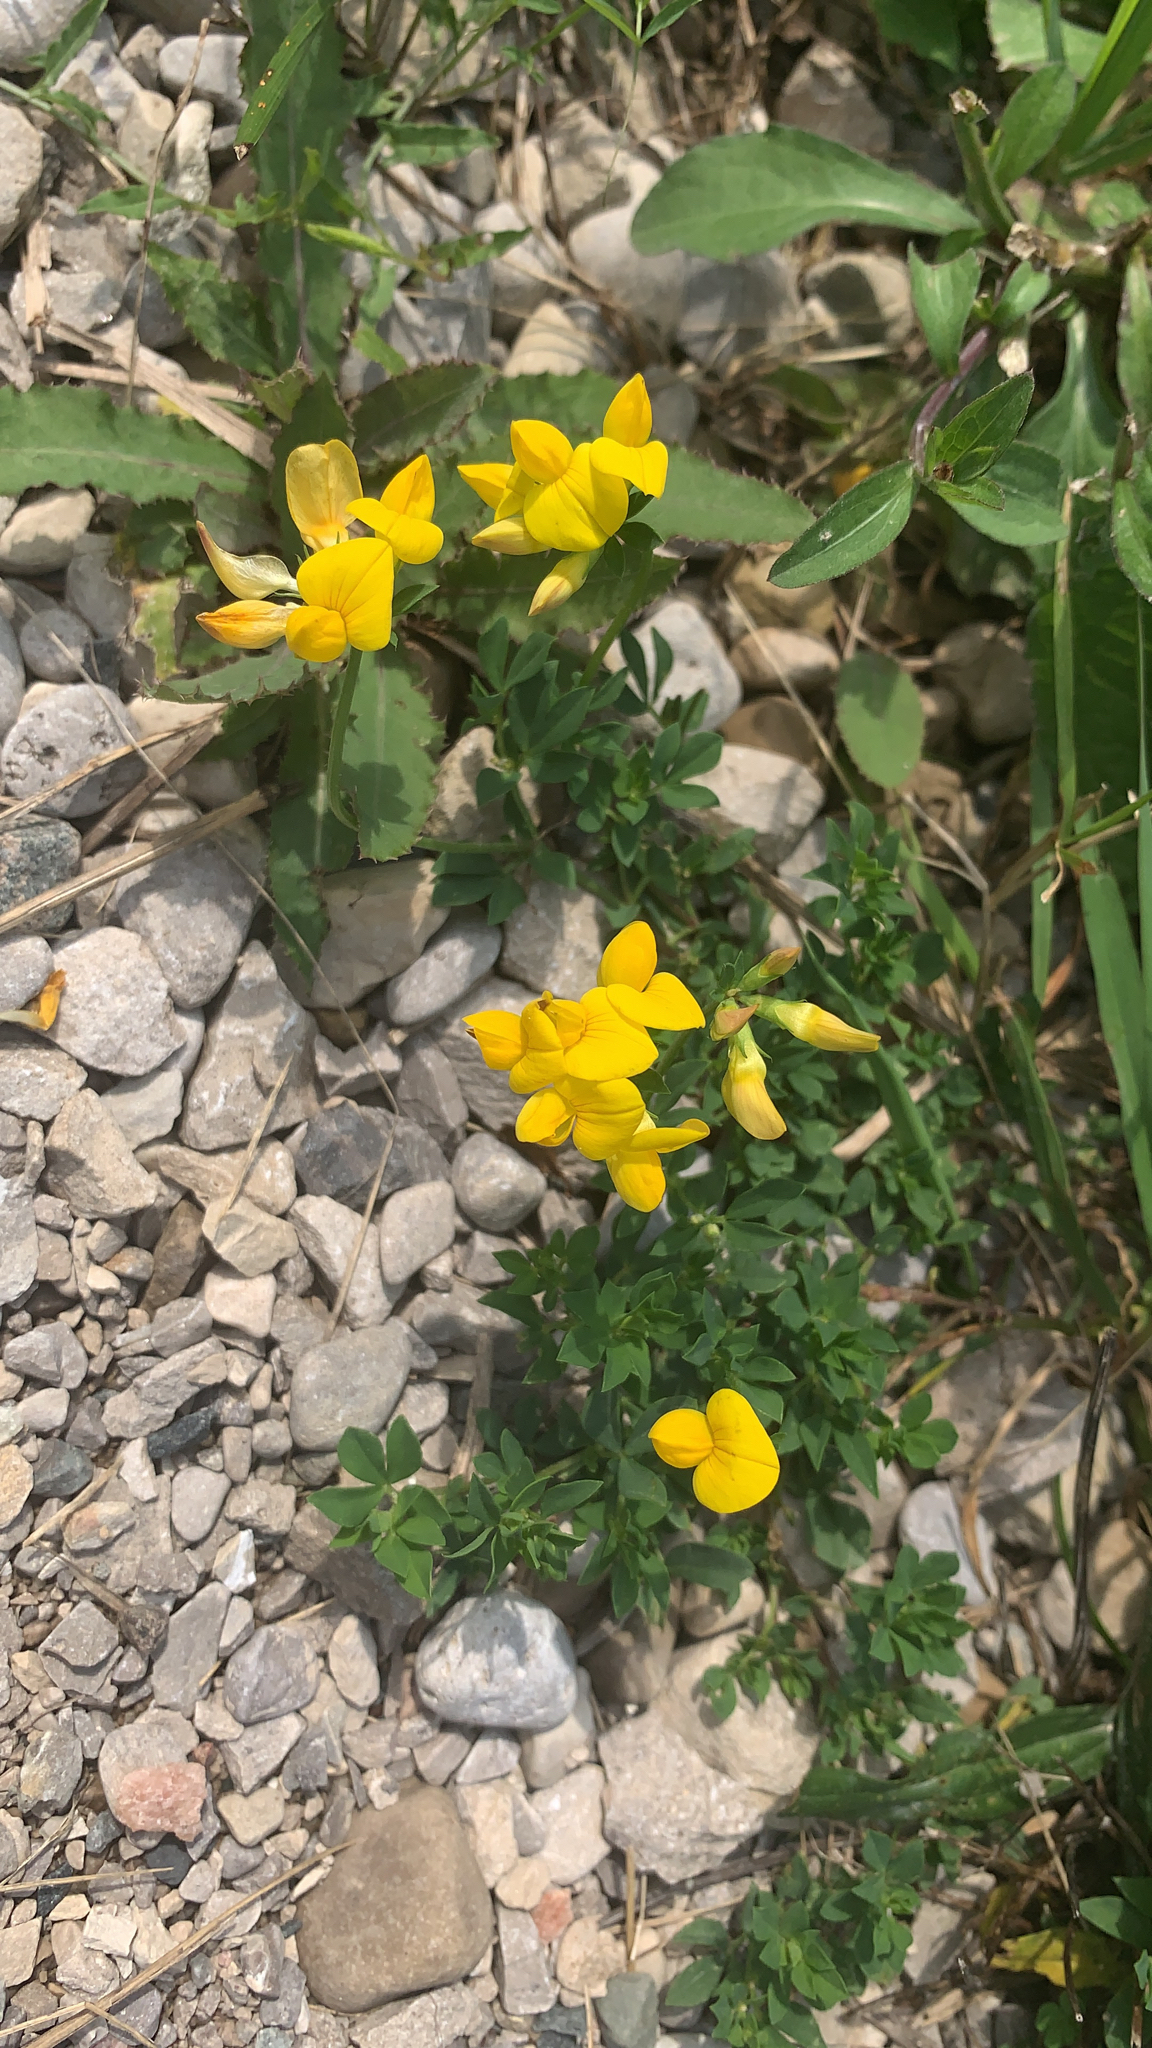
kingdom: Plantae
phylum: Tracheophyta
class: Magnoliopsida
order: Fabales
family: Fabaceae
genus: Lotus
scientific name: Lotus corniculatus
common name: Common bird's-foot-trefoil
